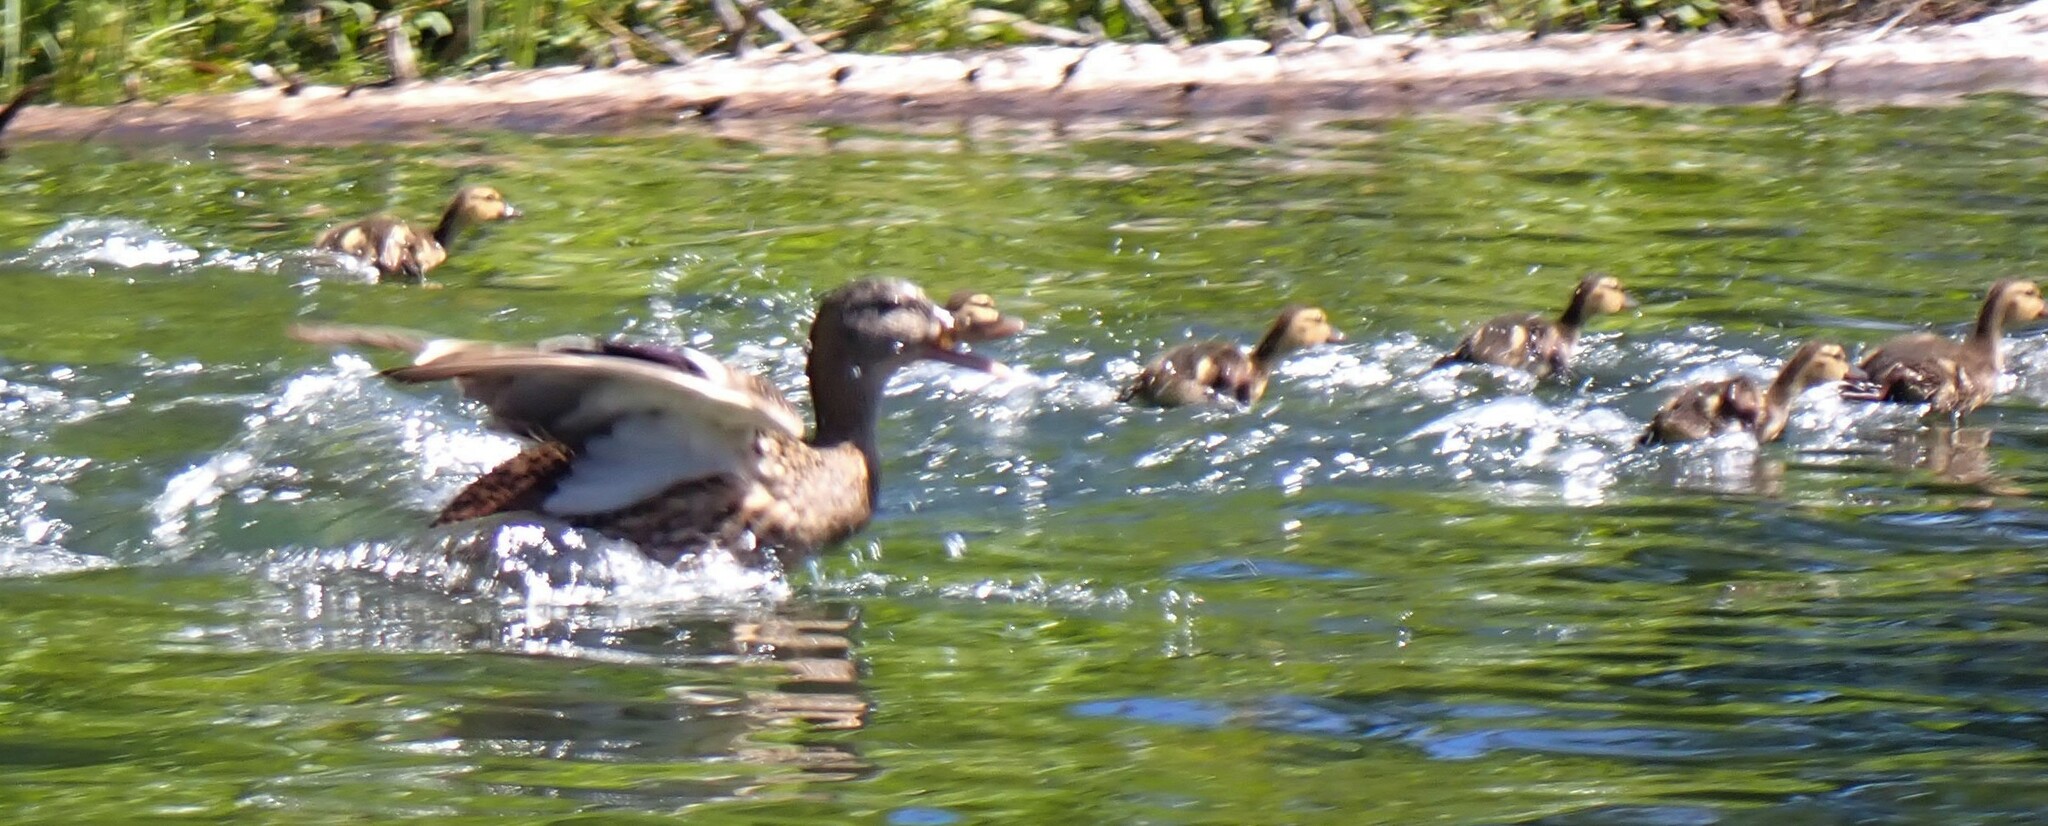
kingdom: Animalia
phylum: Chordata
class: Aves
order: Anseriformes
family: Anatidae
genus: Anas
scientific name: Anas platyrhynchos
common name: Mallard
